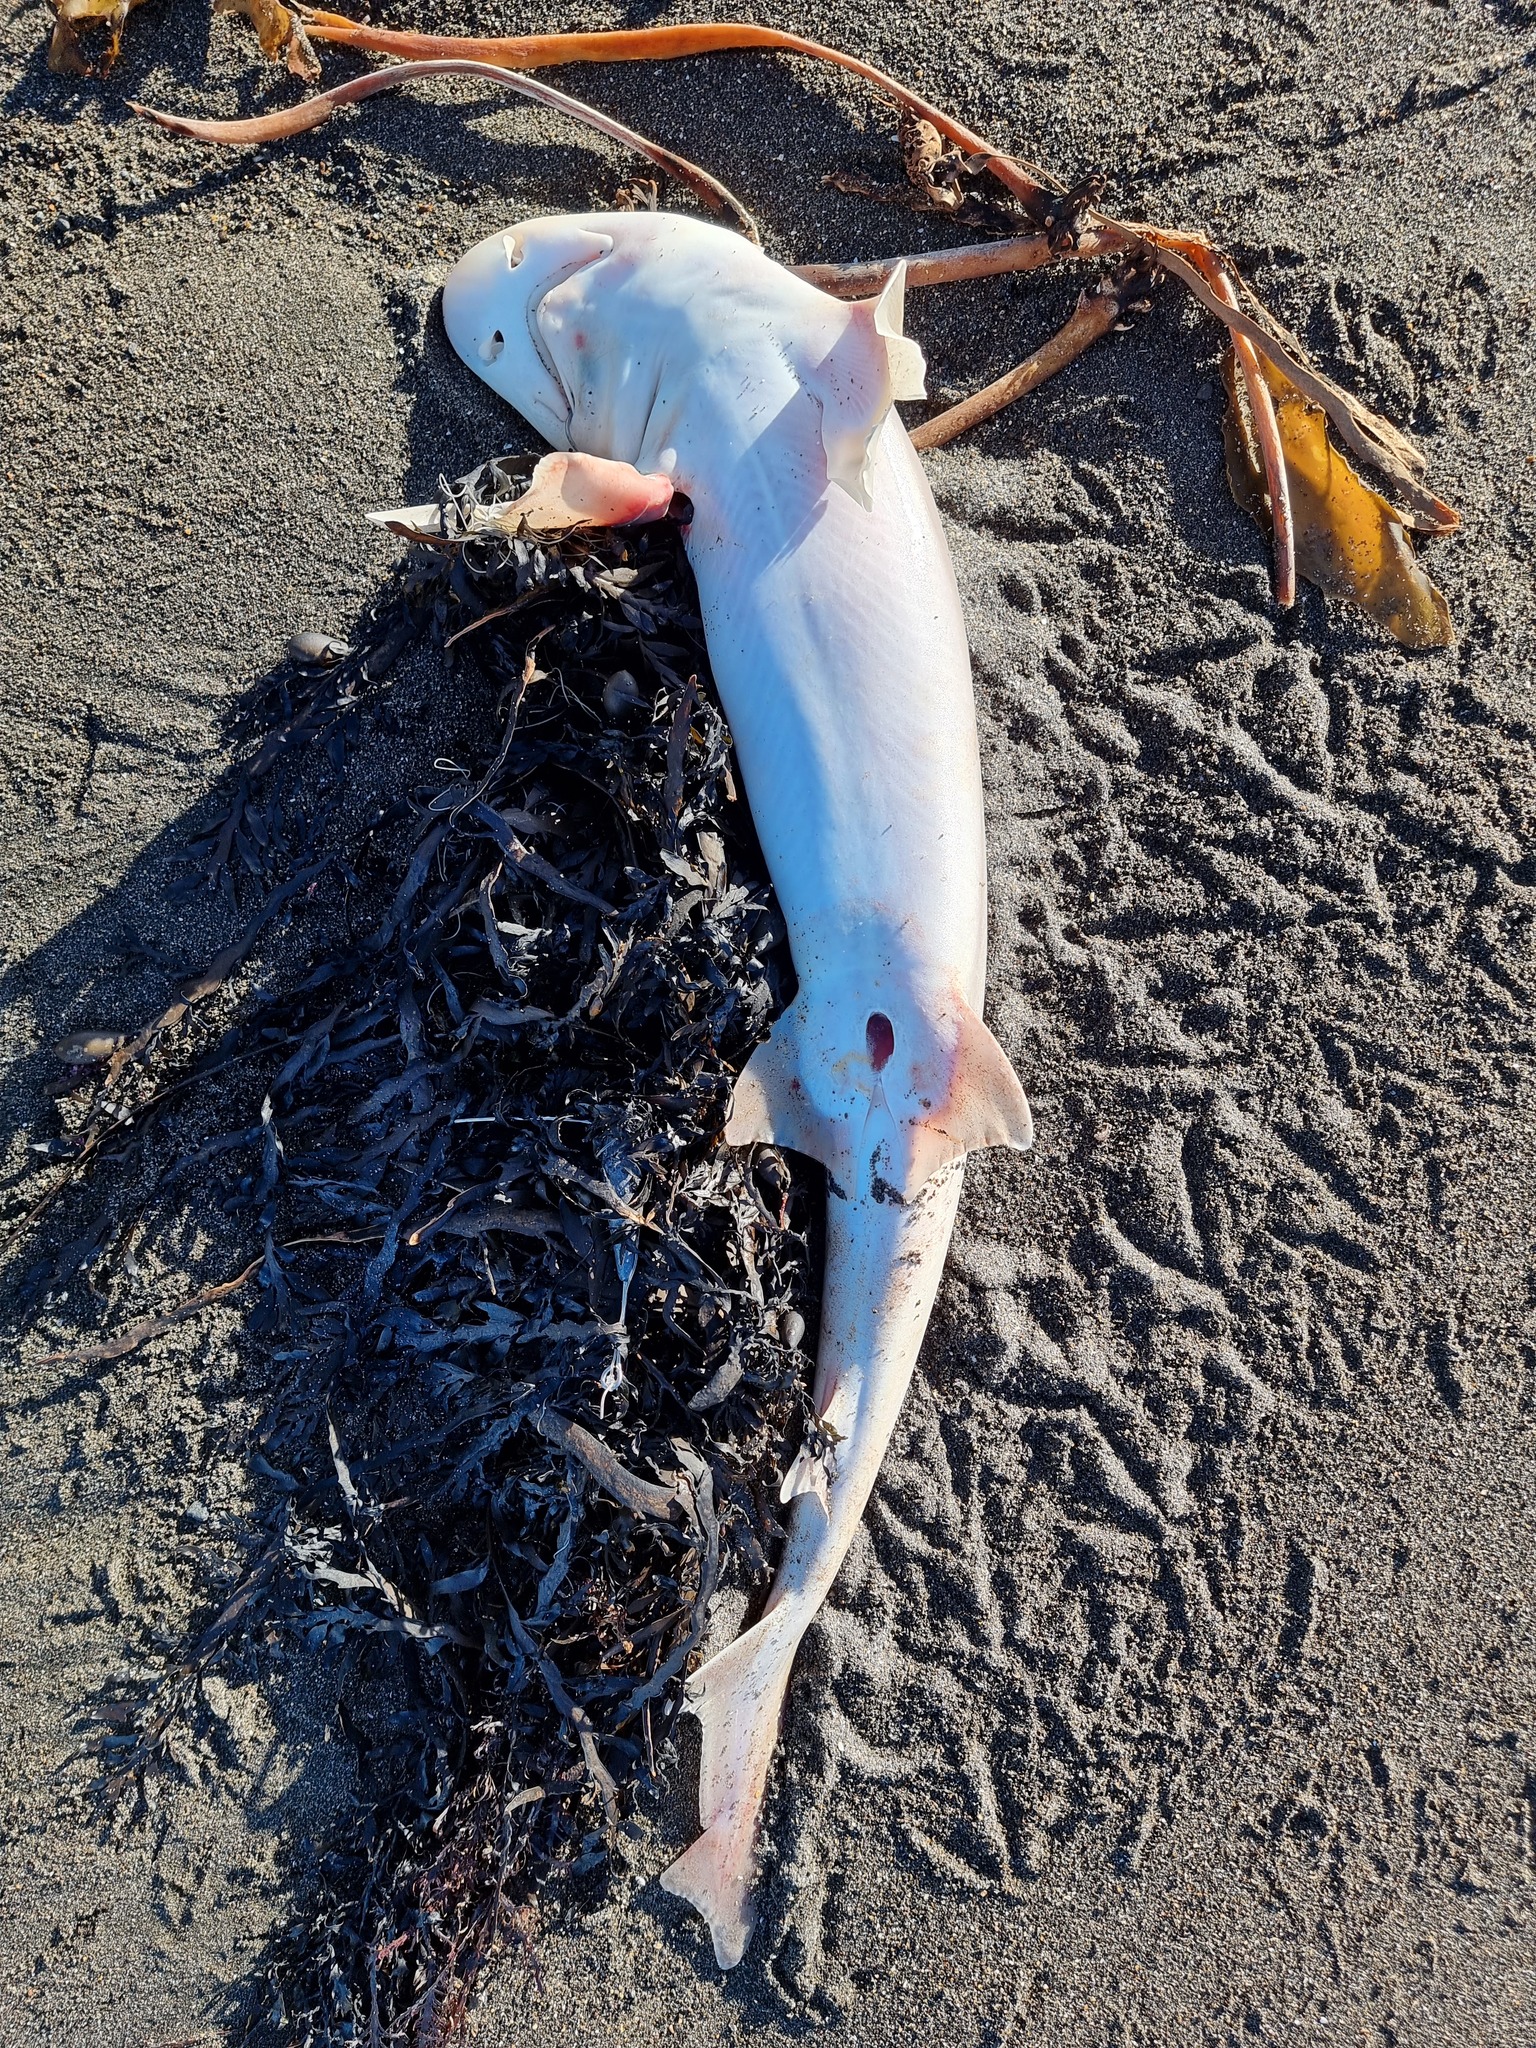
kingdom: Animalia
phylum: Chordata
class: Elasmobranchii
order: Carcharhiniformes
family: Triakidae
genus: Mustelus
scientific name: Mustelus lenticulatus
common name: Gummy shark
